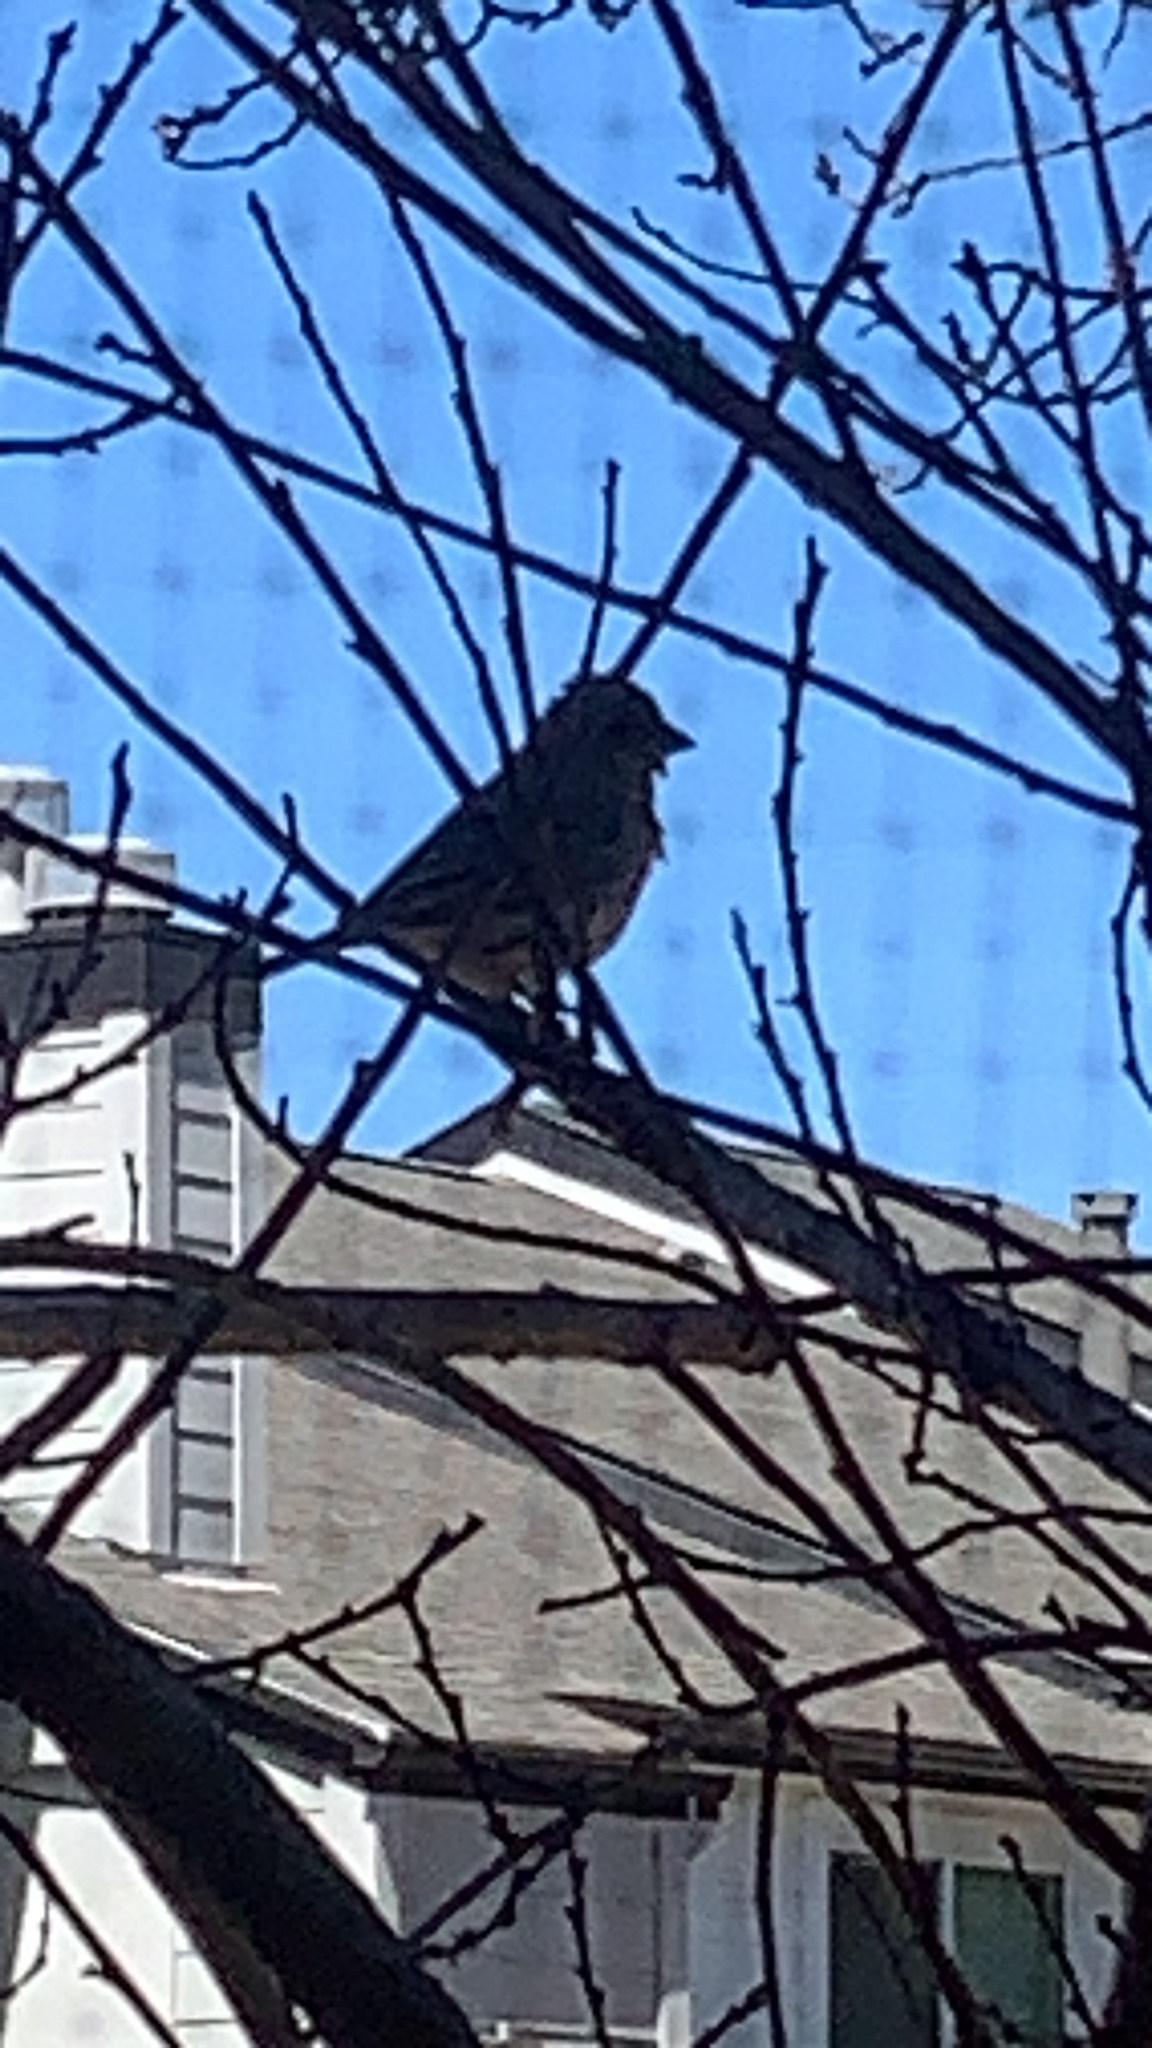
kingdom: Animalia
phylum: Chordata
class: Aves
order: Passeriformes
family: Fringillidae
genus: Haemorhous
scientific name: Haemorhous mexicanus
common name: House finch
